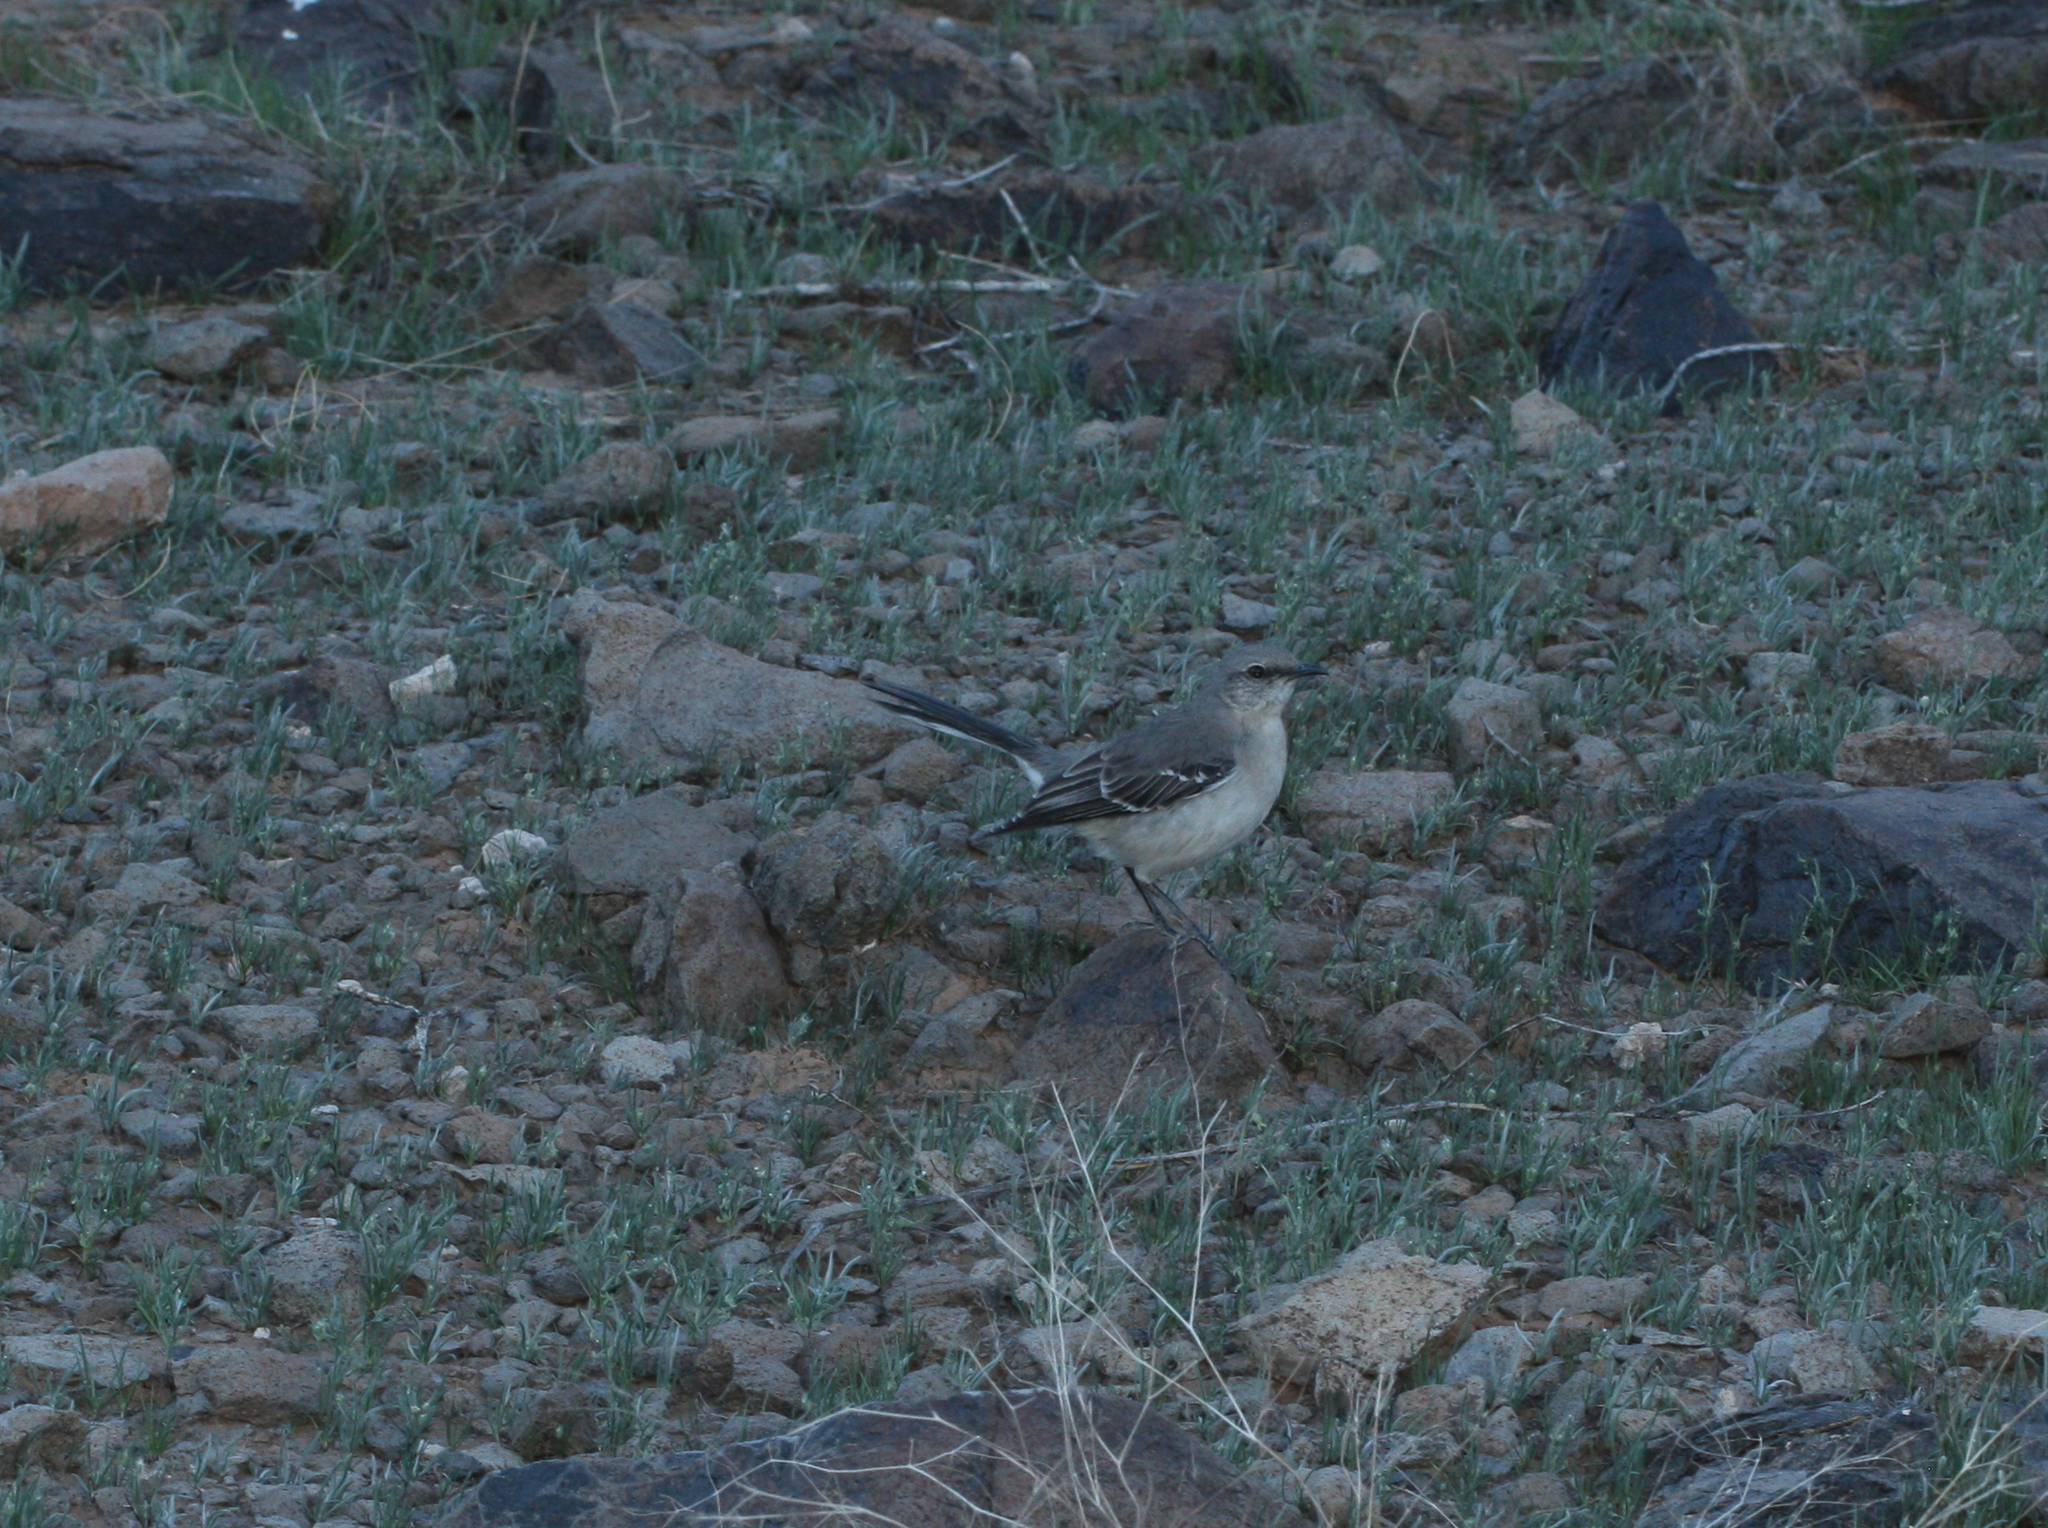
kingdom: Animalia
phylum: Chordata
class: Aves
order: Passeriformes
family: Mimidae
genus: Mimus
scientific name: Mimus polyglottos
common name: Northern mockingbird
